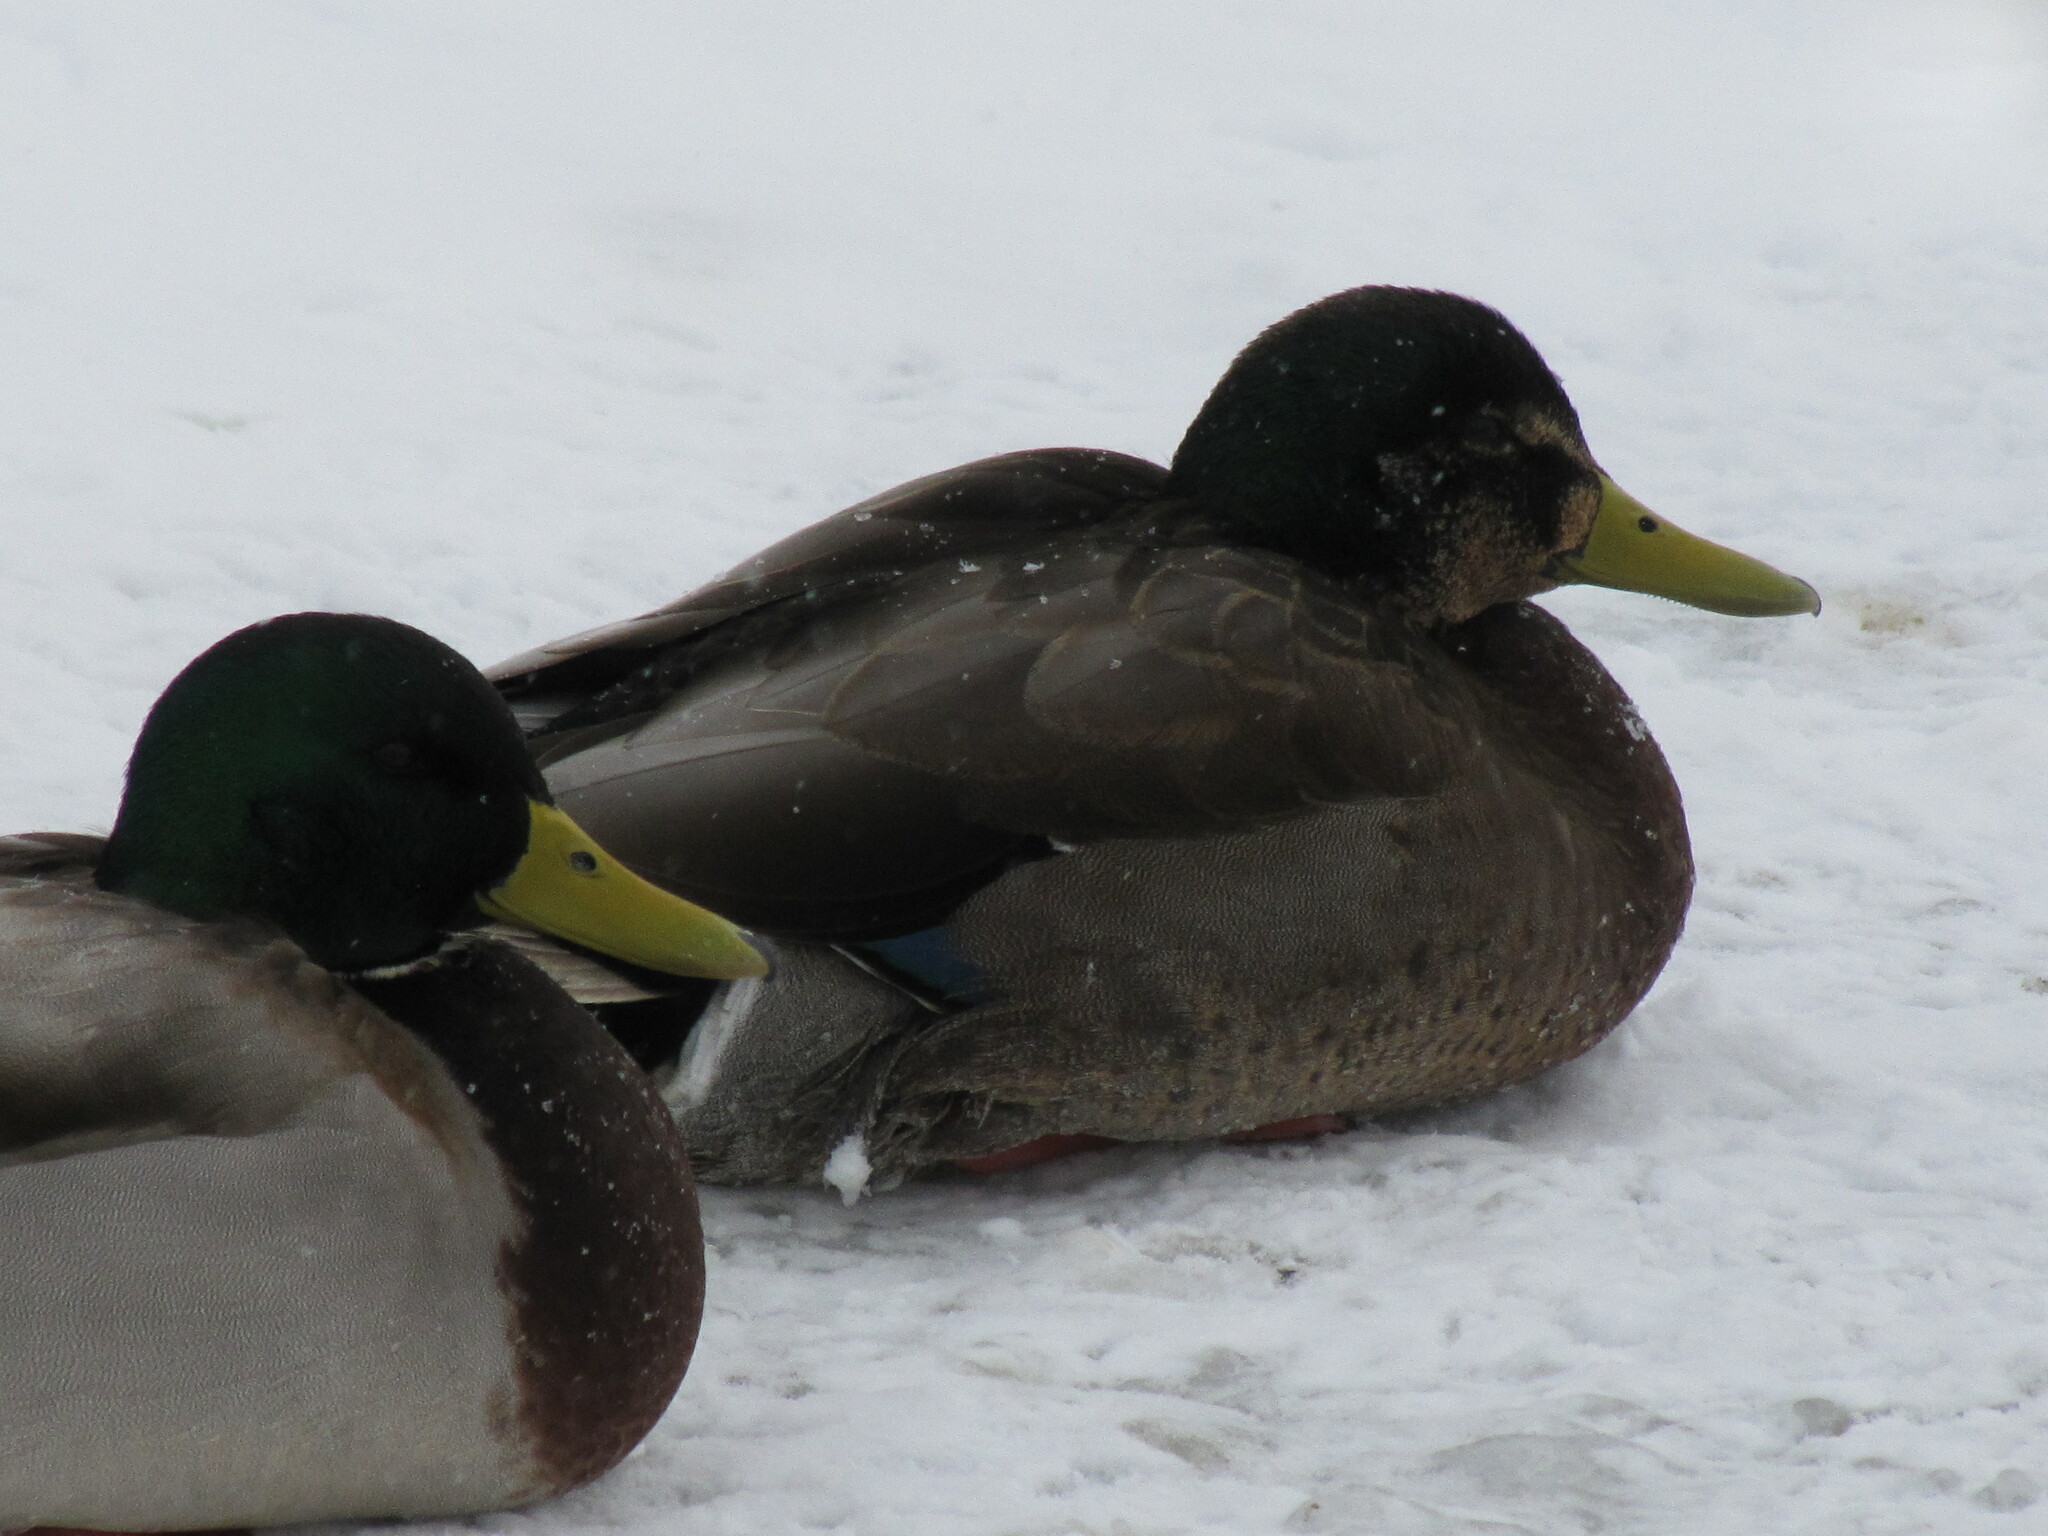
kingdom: Animalia
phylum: Chordata
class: Aves
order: Anseriformes
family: Anatidae
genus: Anas
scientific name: Anas
